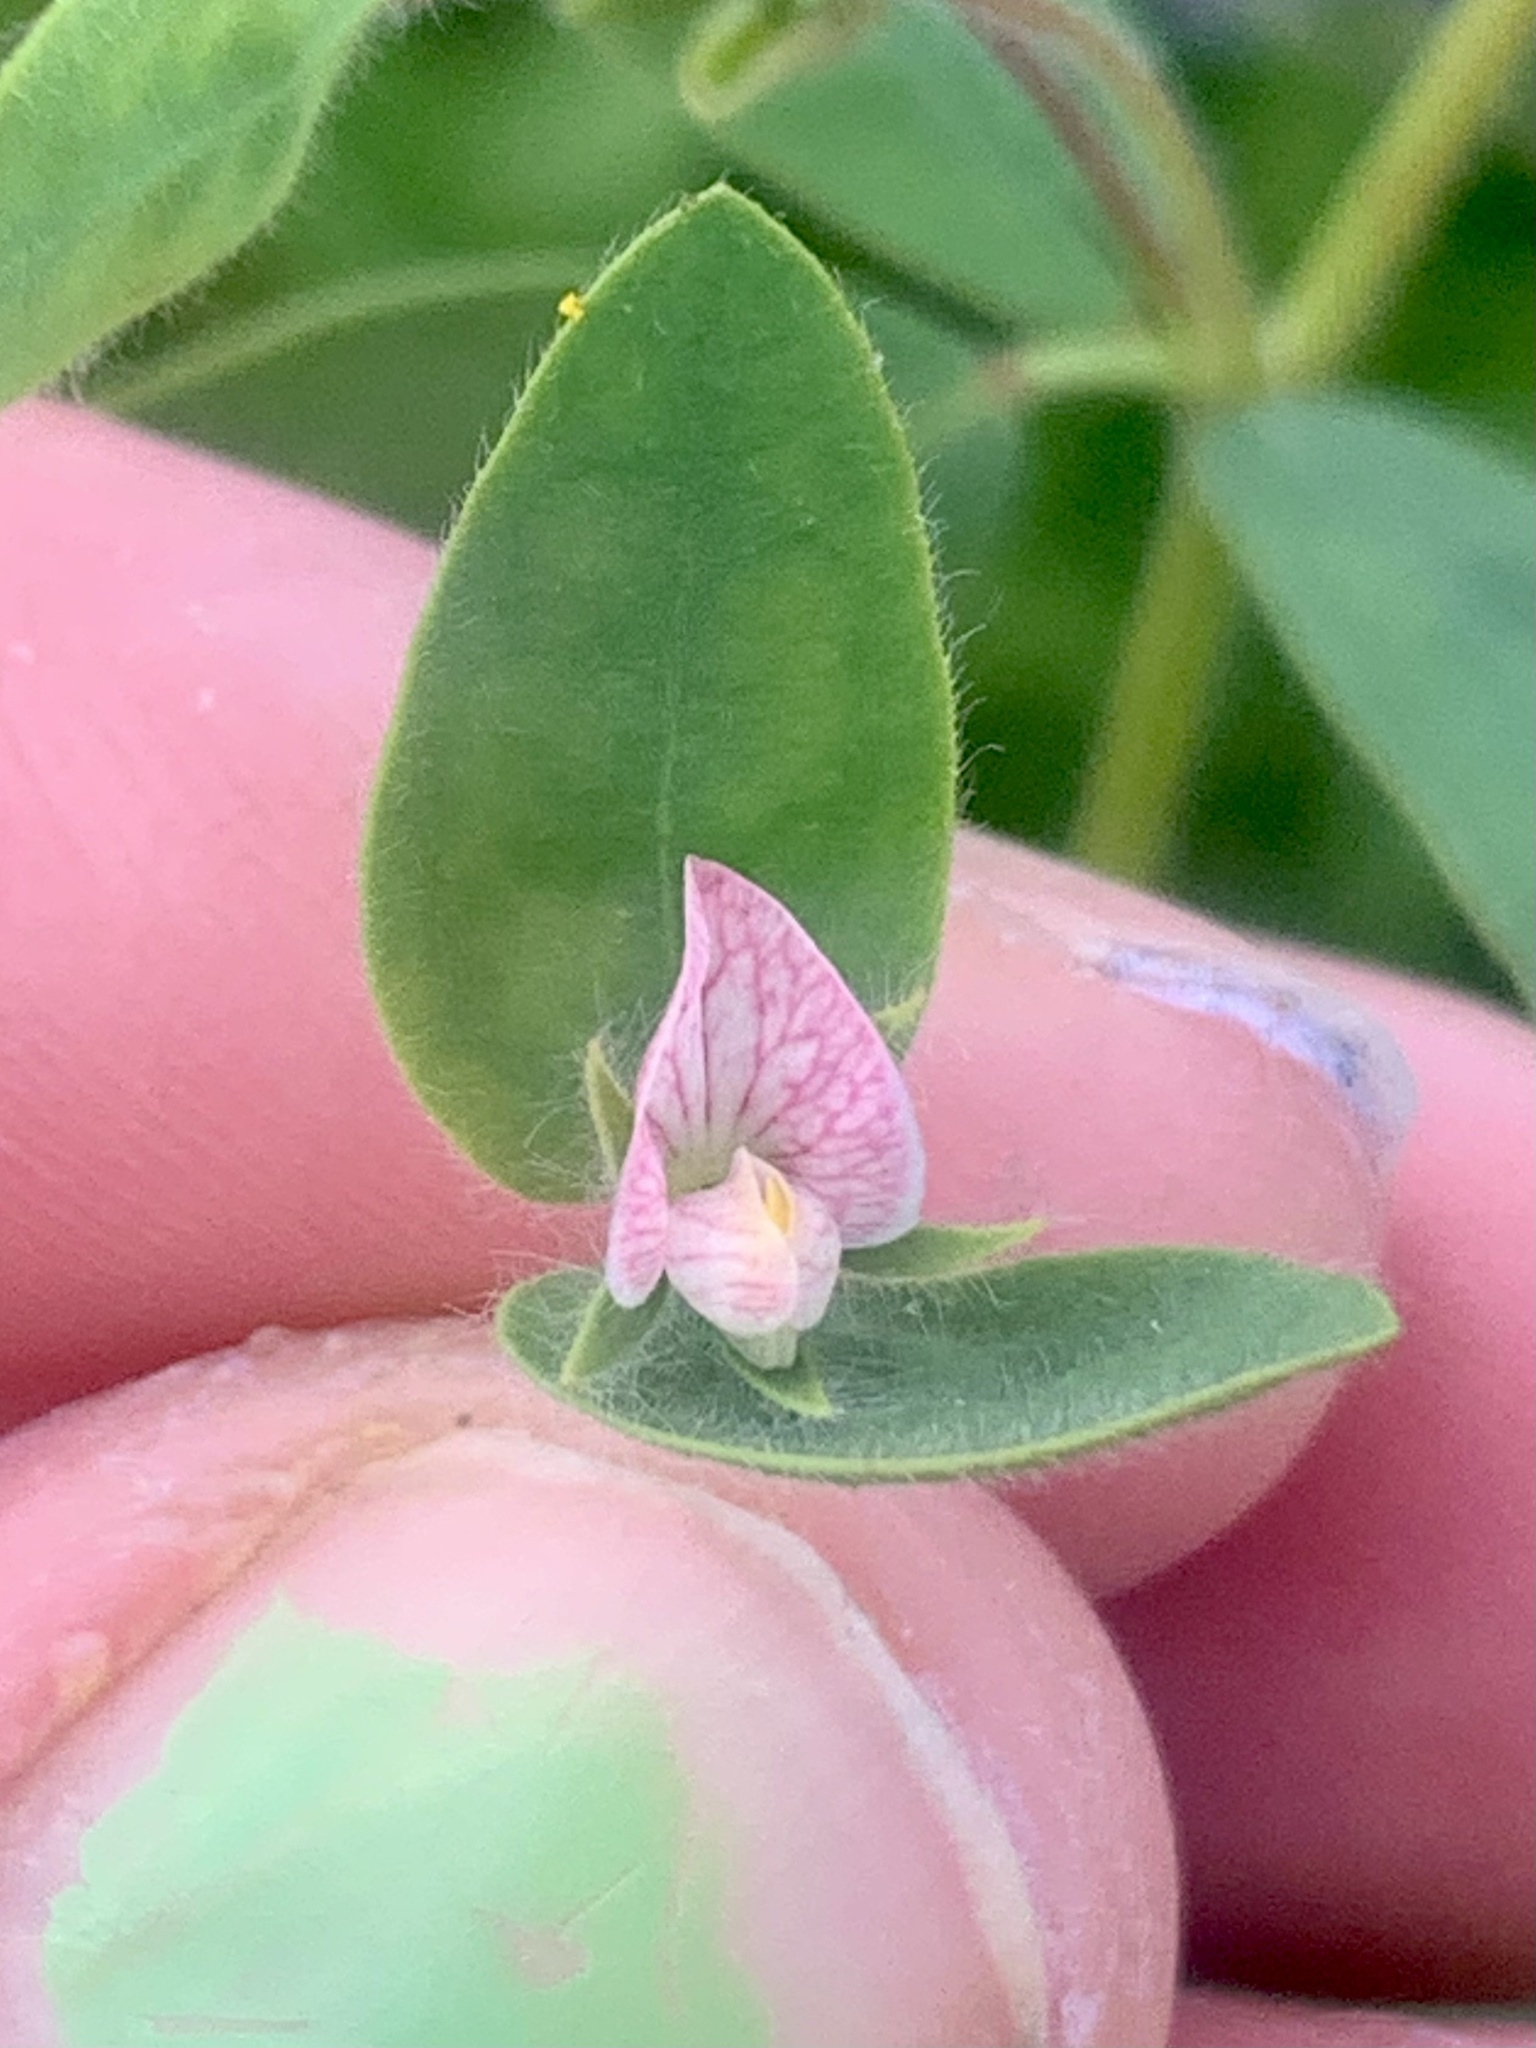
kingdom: Plantae
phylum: Tracheophyta
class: Magnoliopsida
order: Fabales
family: Fabaceae
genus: Acmispon
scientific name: Acmispon americanus
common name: American bird's-foot trefoil
